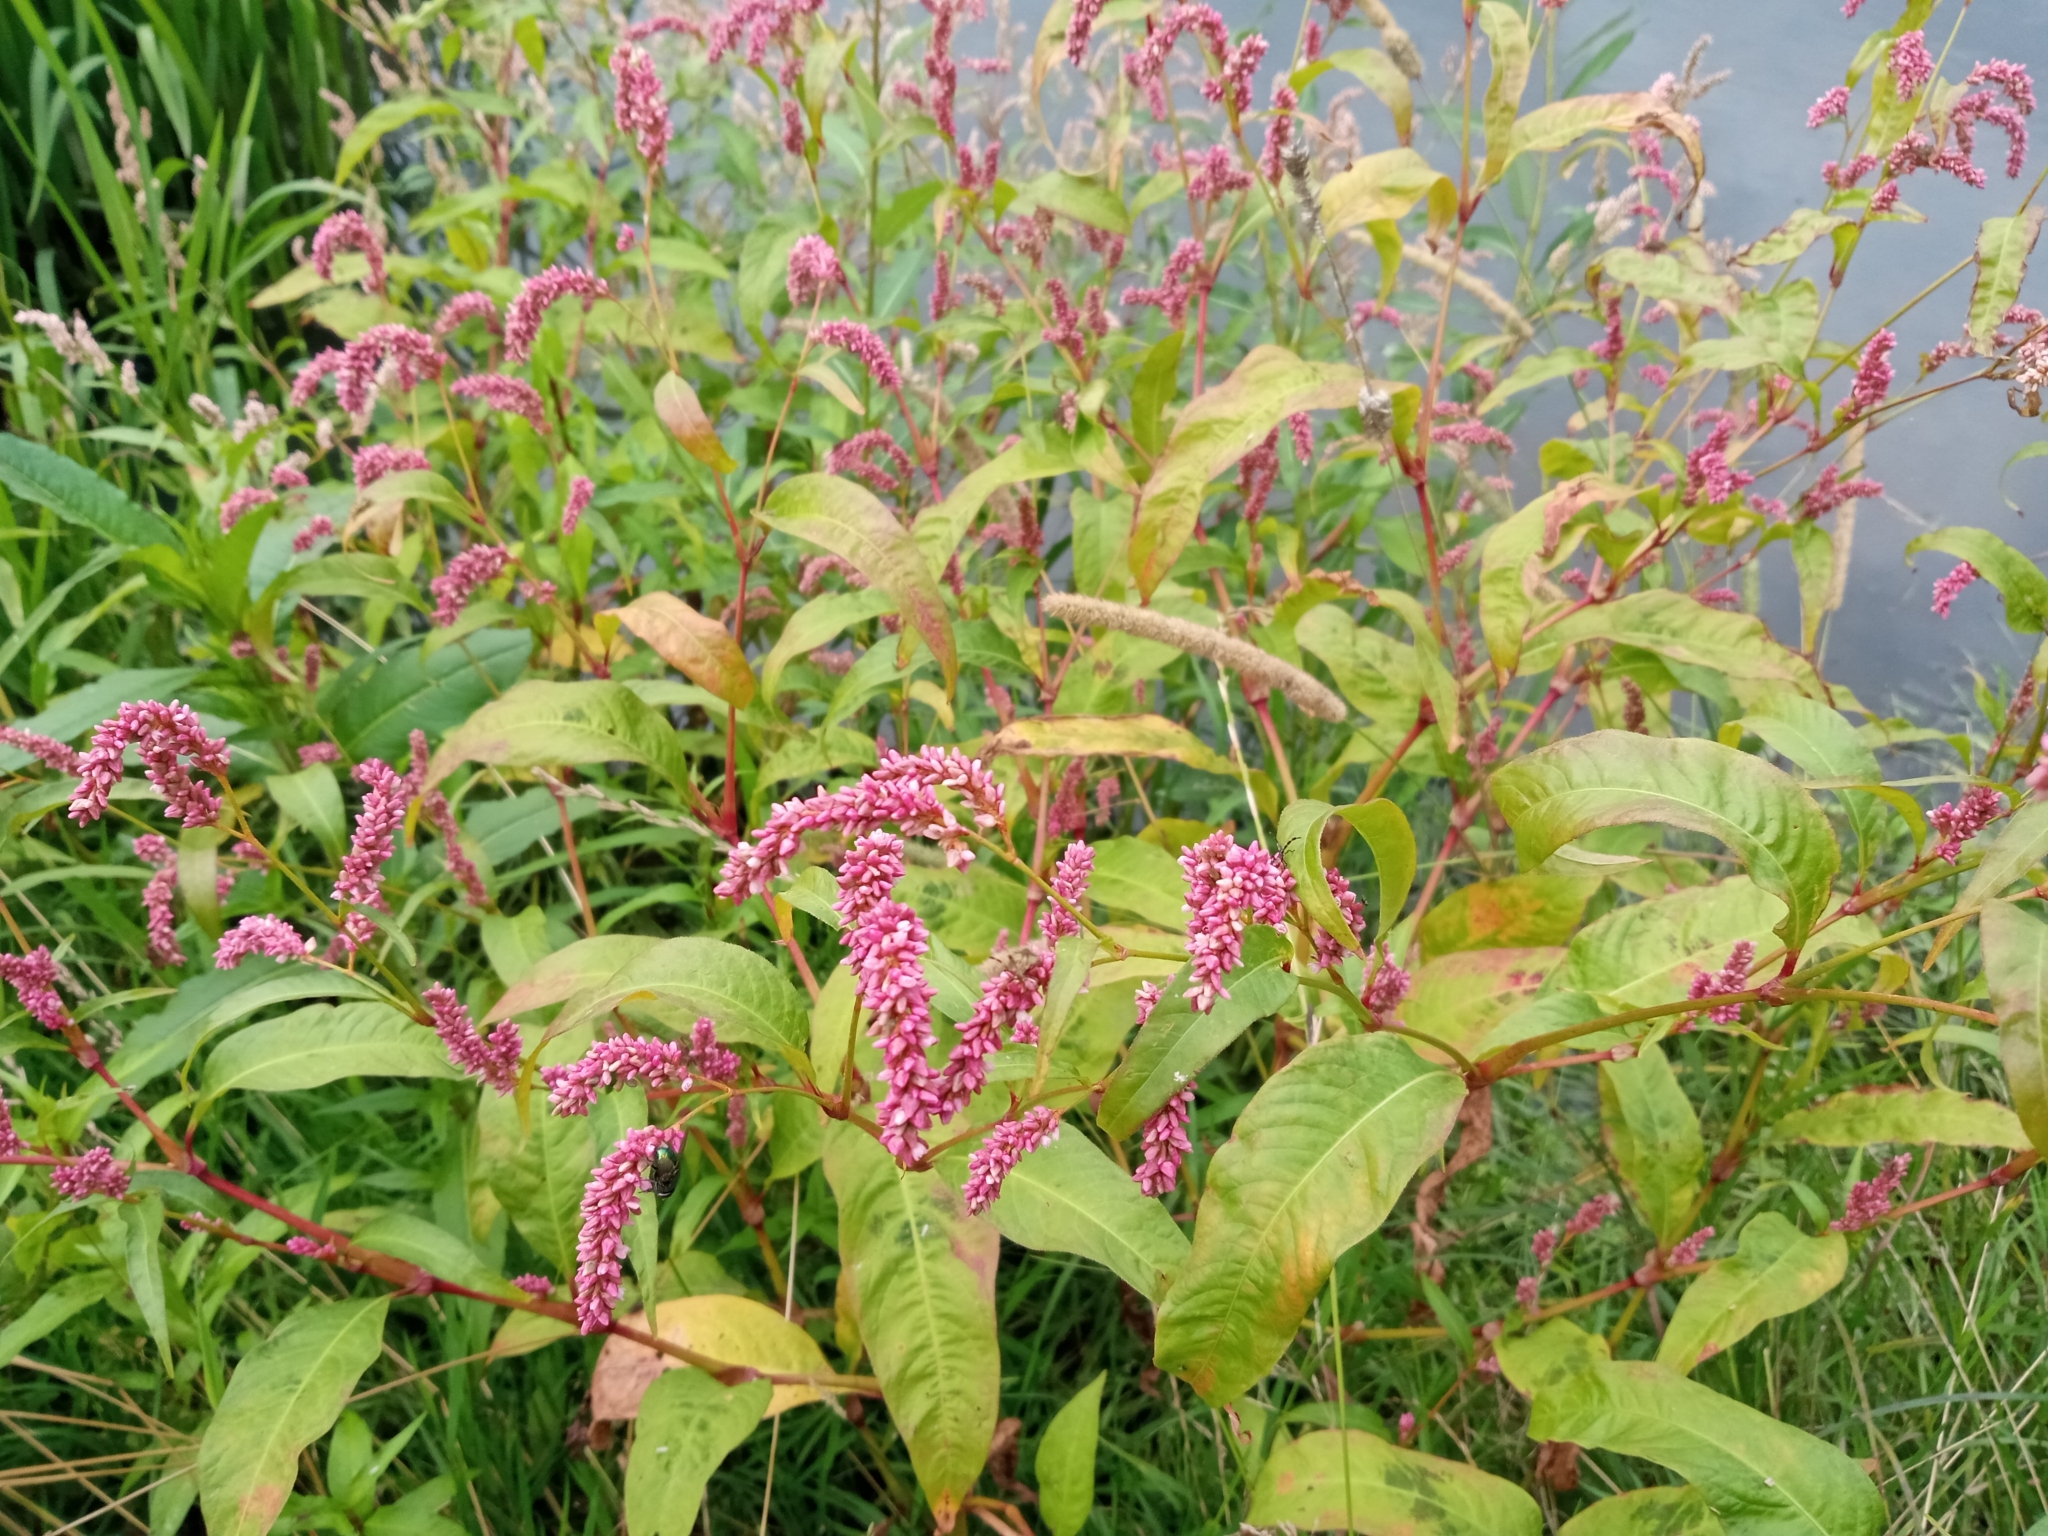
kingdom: Plantae
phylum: Tracheophyta
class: Magnoliopsida
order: Caryophyllales
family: Polygonaceae
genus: Persicaria
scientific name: Persicaria lapathifolia
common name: Curlytop knotweed
